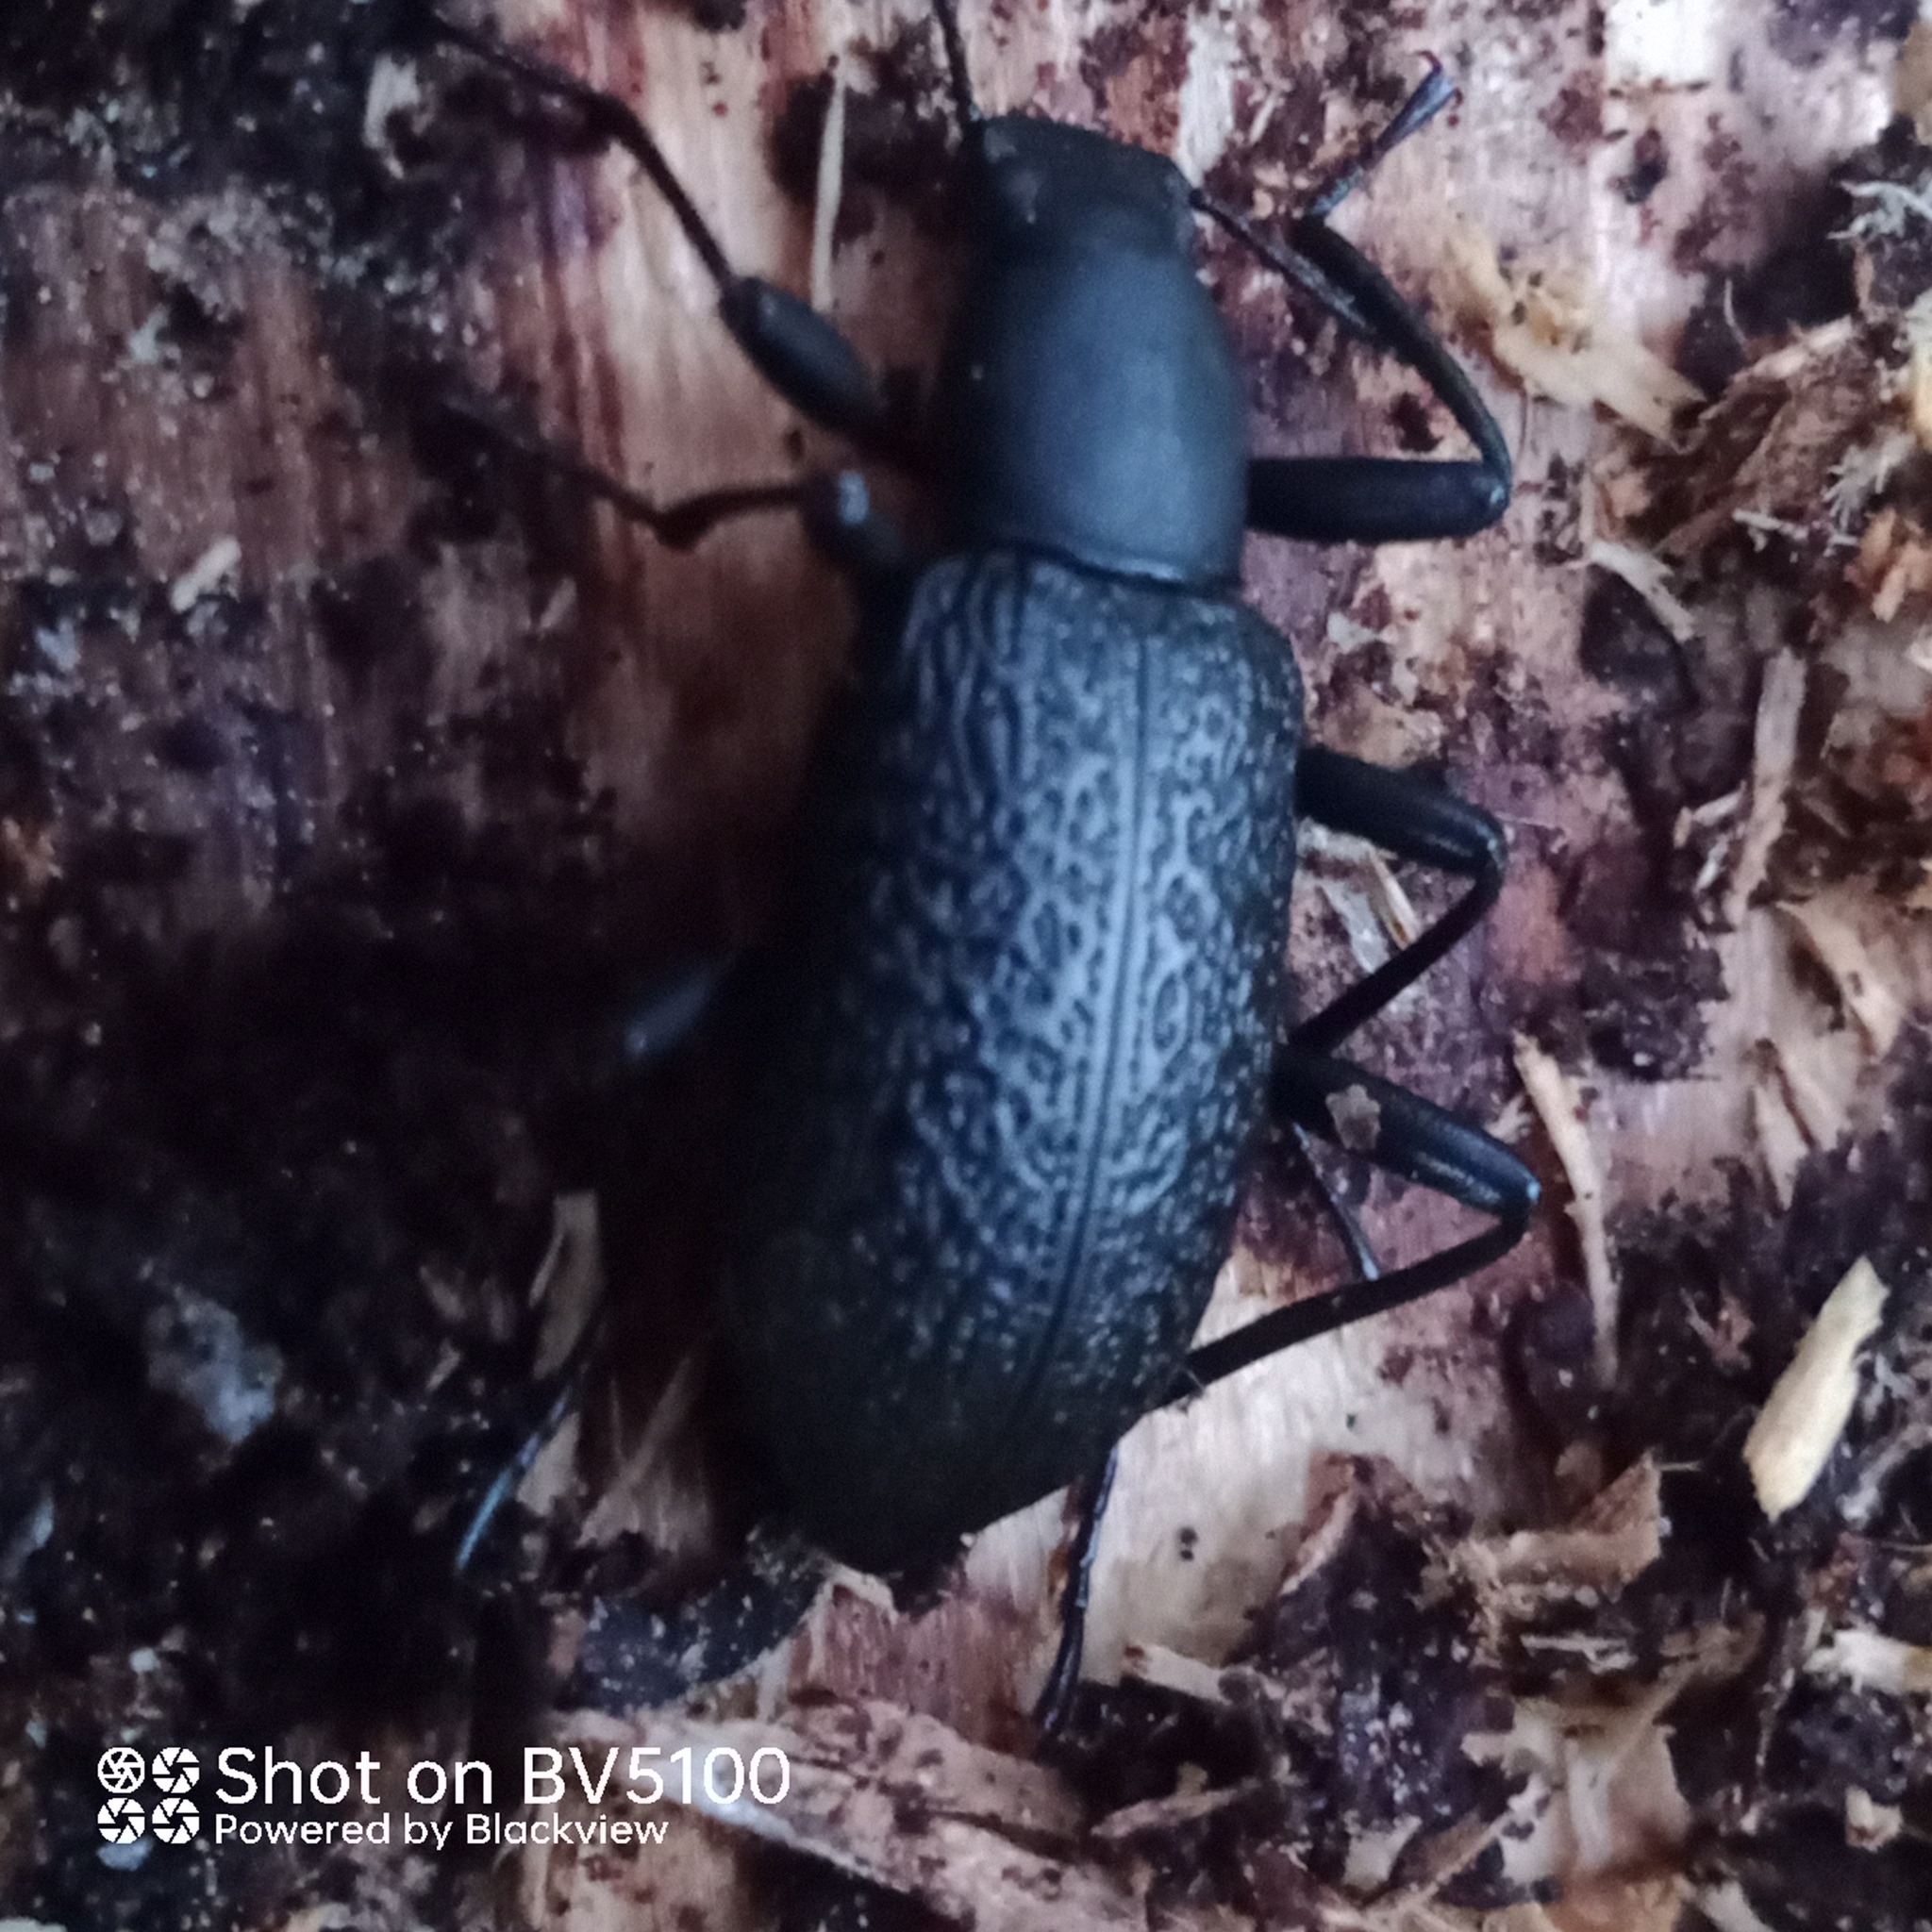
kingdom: Animalia
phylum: Arthropoda
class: Insecta
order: Coleoptera
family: Tenebrionidae
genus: Upis
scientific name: Upis ceramboides
